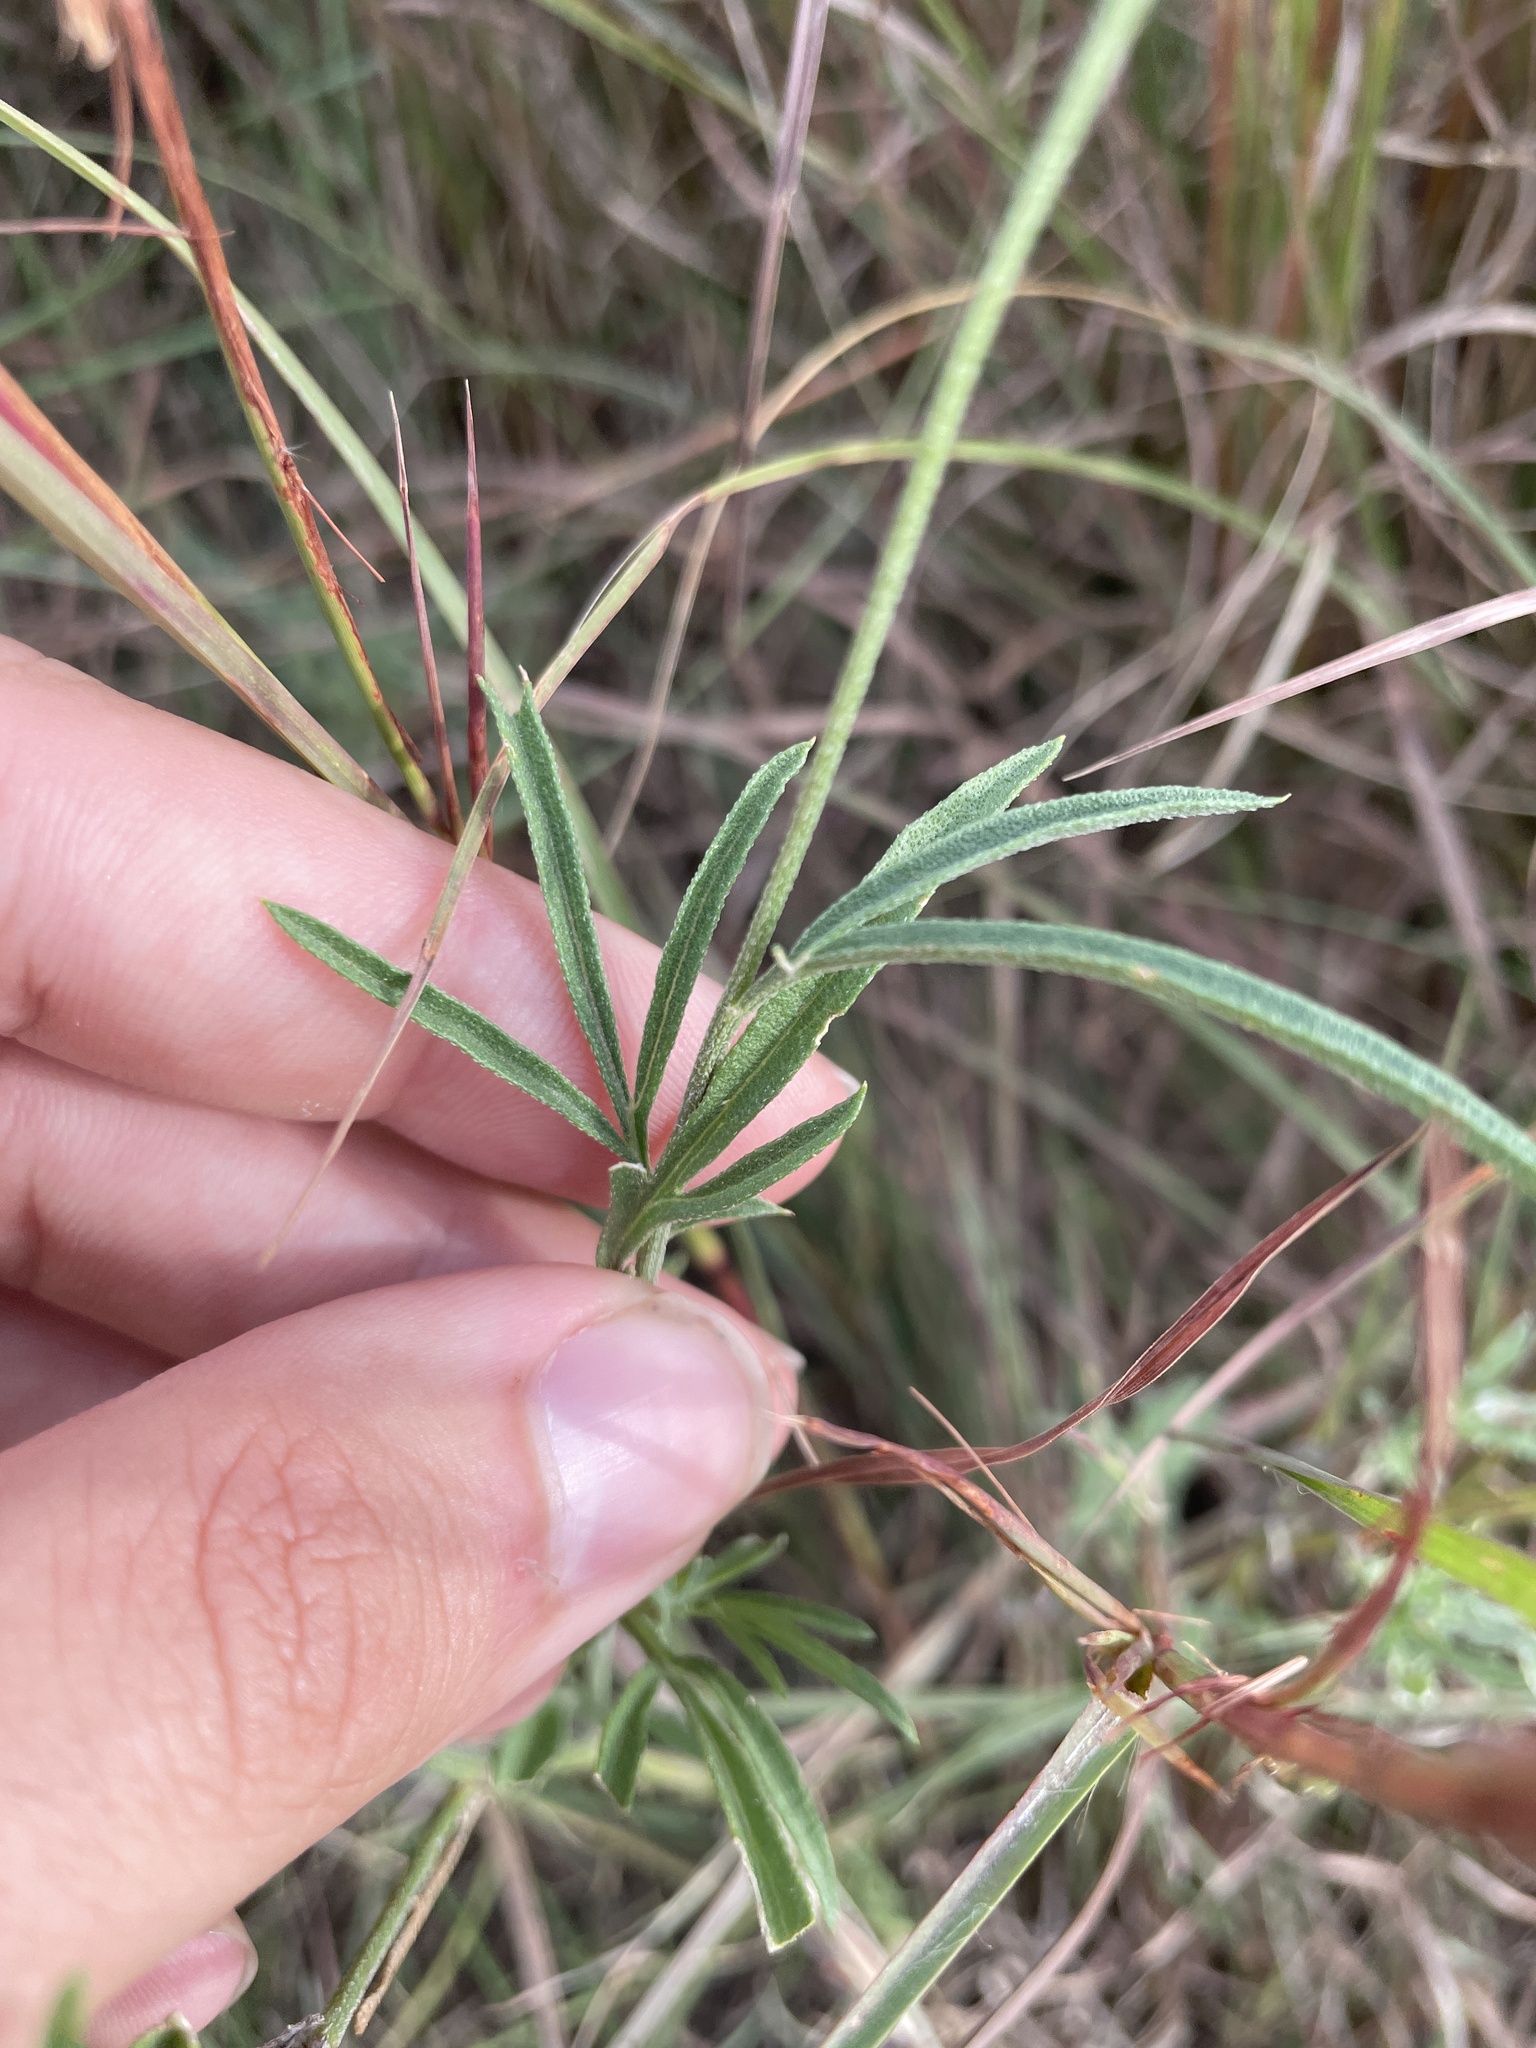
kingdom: Plantae
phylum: Tracheophyta
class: Magnoliopsida
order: Asterales
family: Asteraceae
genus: Ratibida
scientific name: Ratibida columnifera
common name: Prairie coneflower
